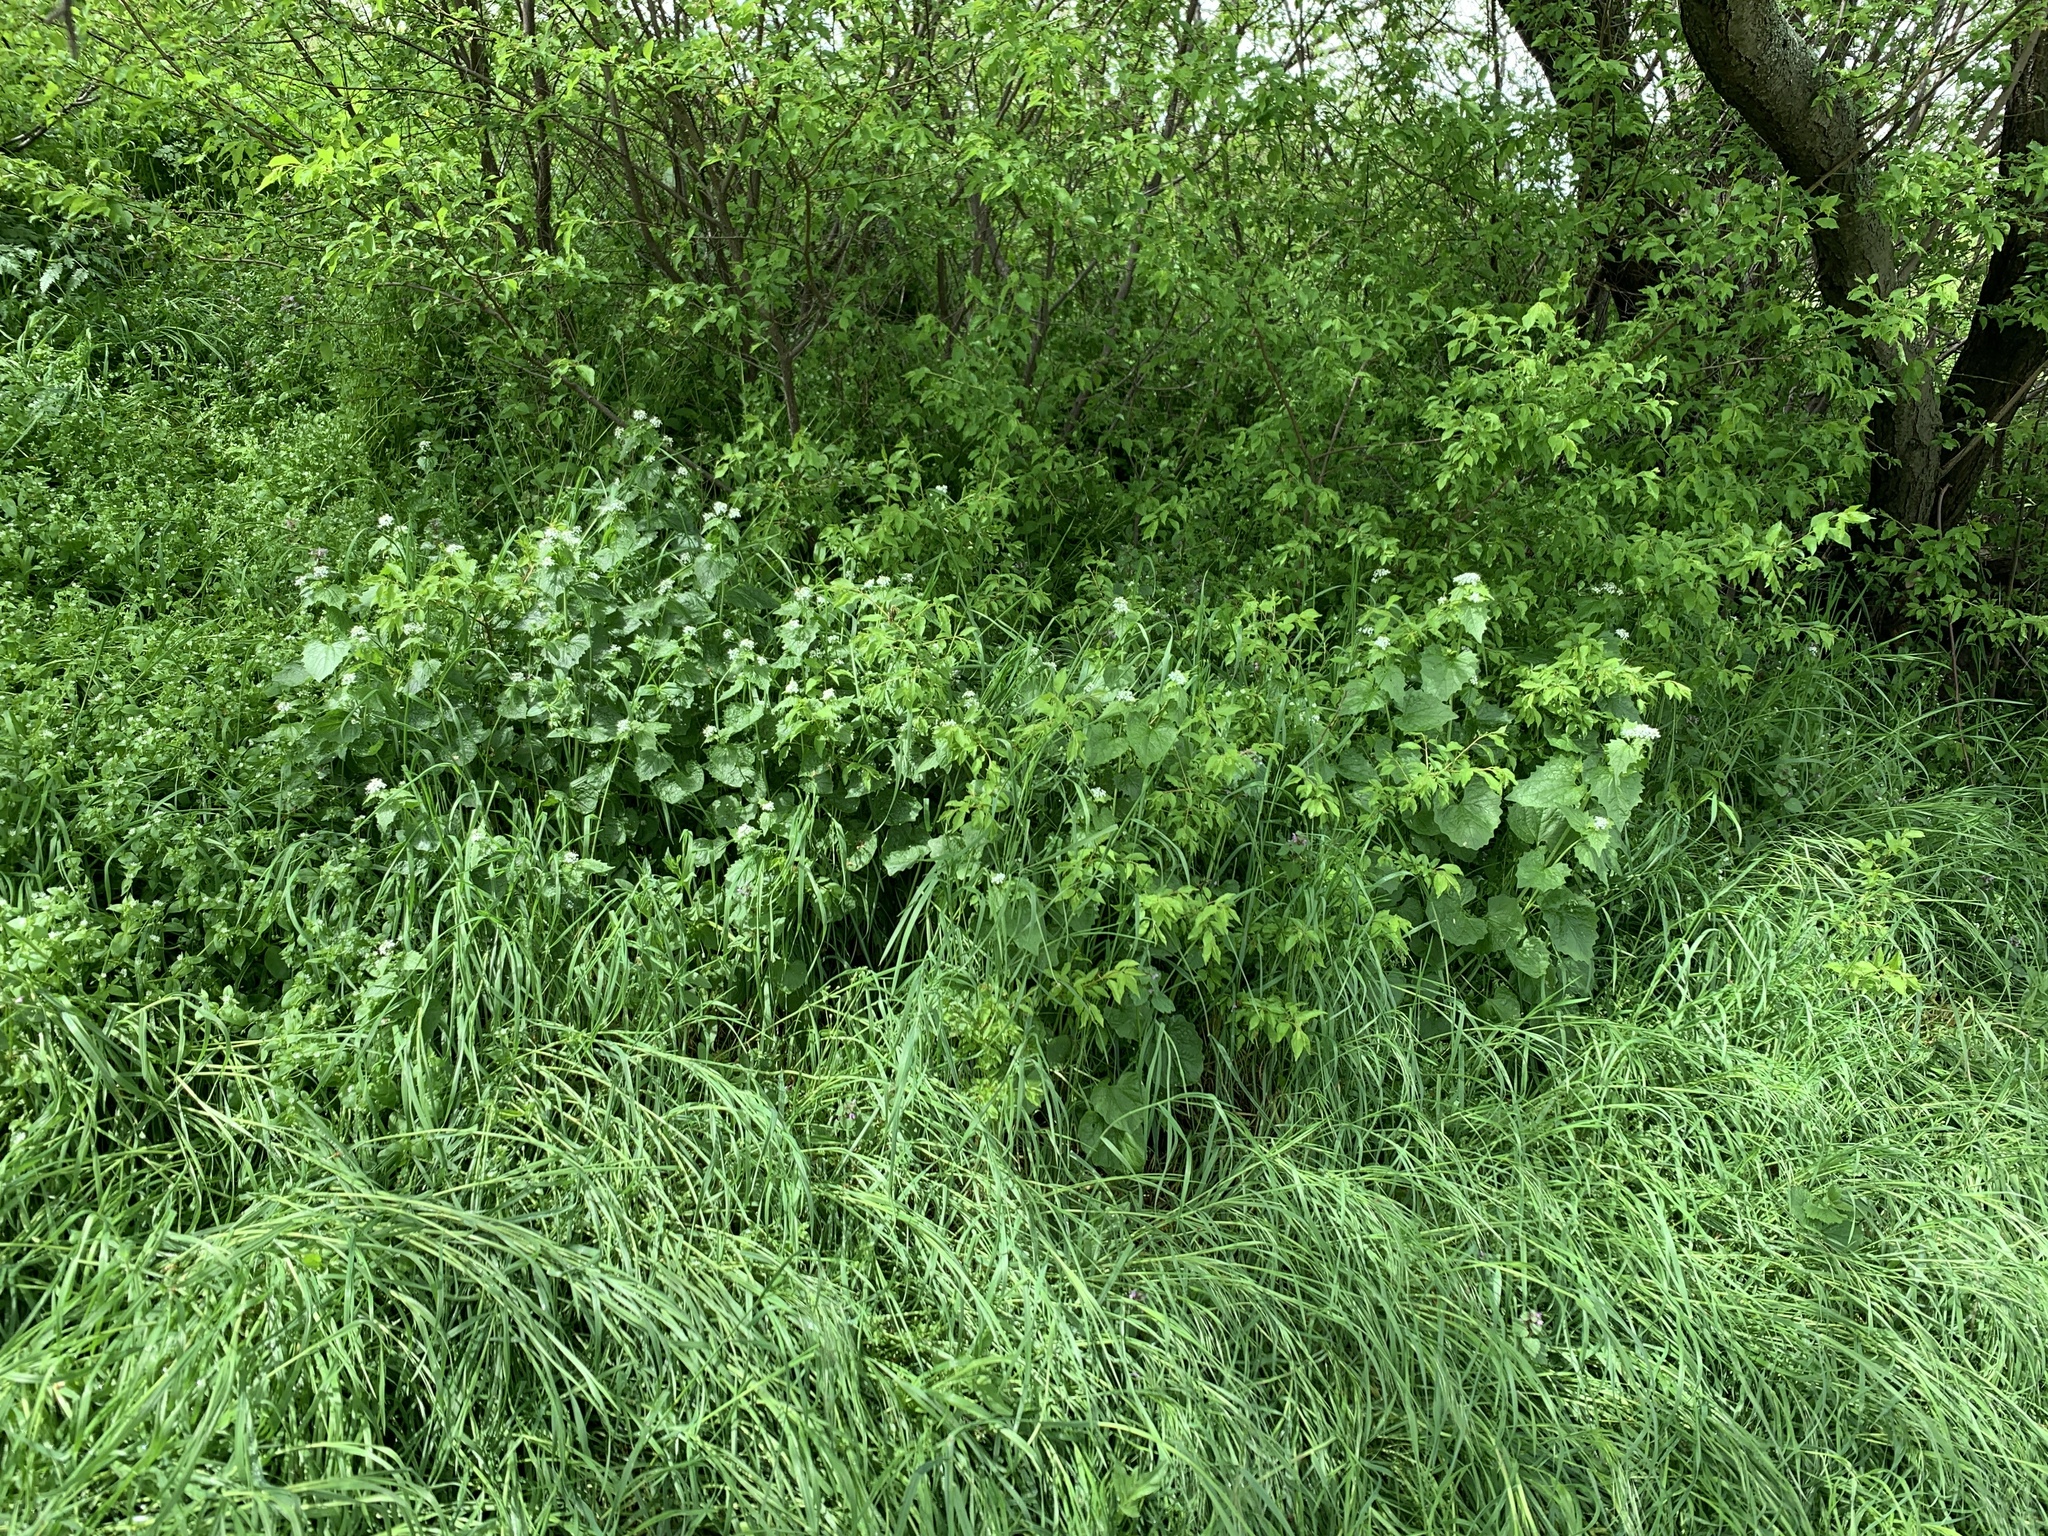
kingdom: Plantae
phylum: Tracheophyta
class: Magnoliopsida
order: Brassicales
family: Brassicaceae
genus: Alliaria
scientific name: Alliaria petiolata
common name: Garlic mustard
